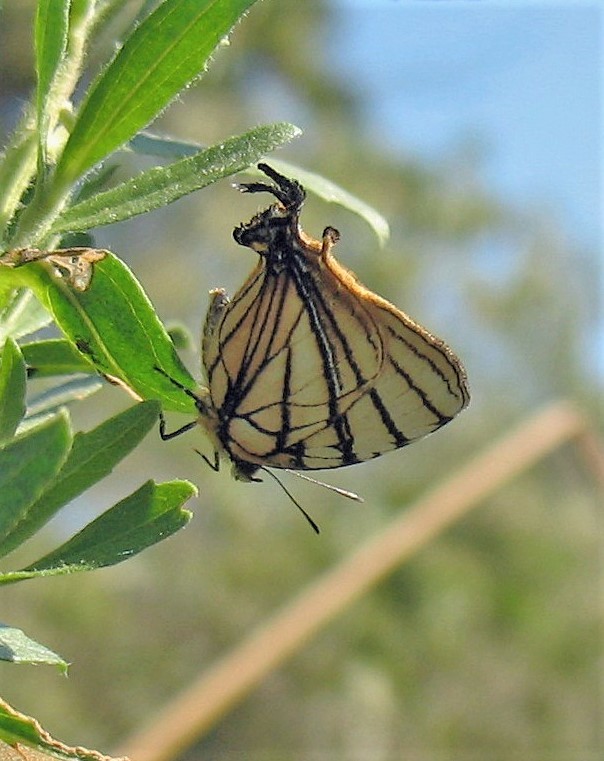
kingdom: Animalia
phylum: Arthropoda
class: Insecta
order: Lepidoptera
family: Lycaenidae
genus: Arawacus
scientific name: Arawacus melibaeus
